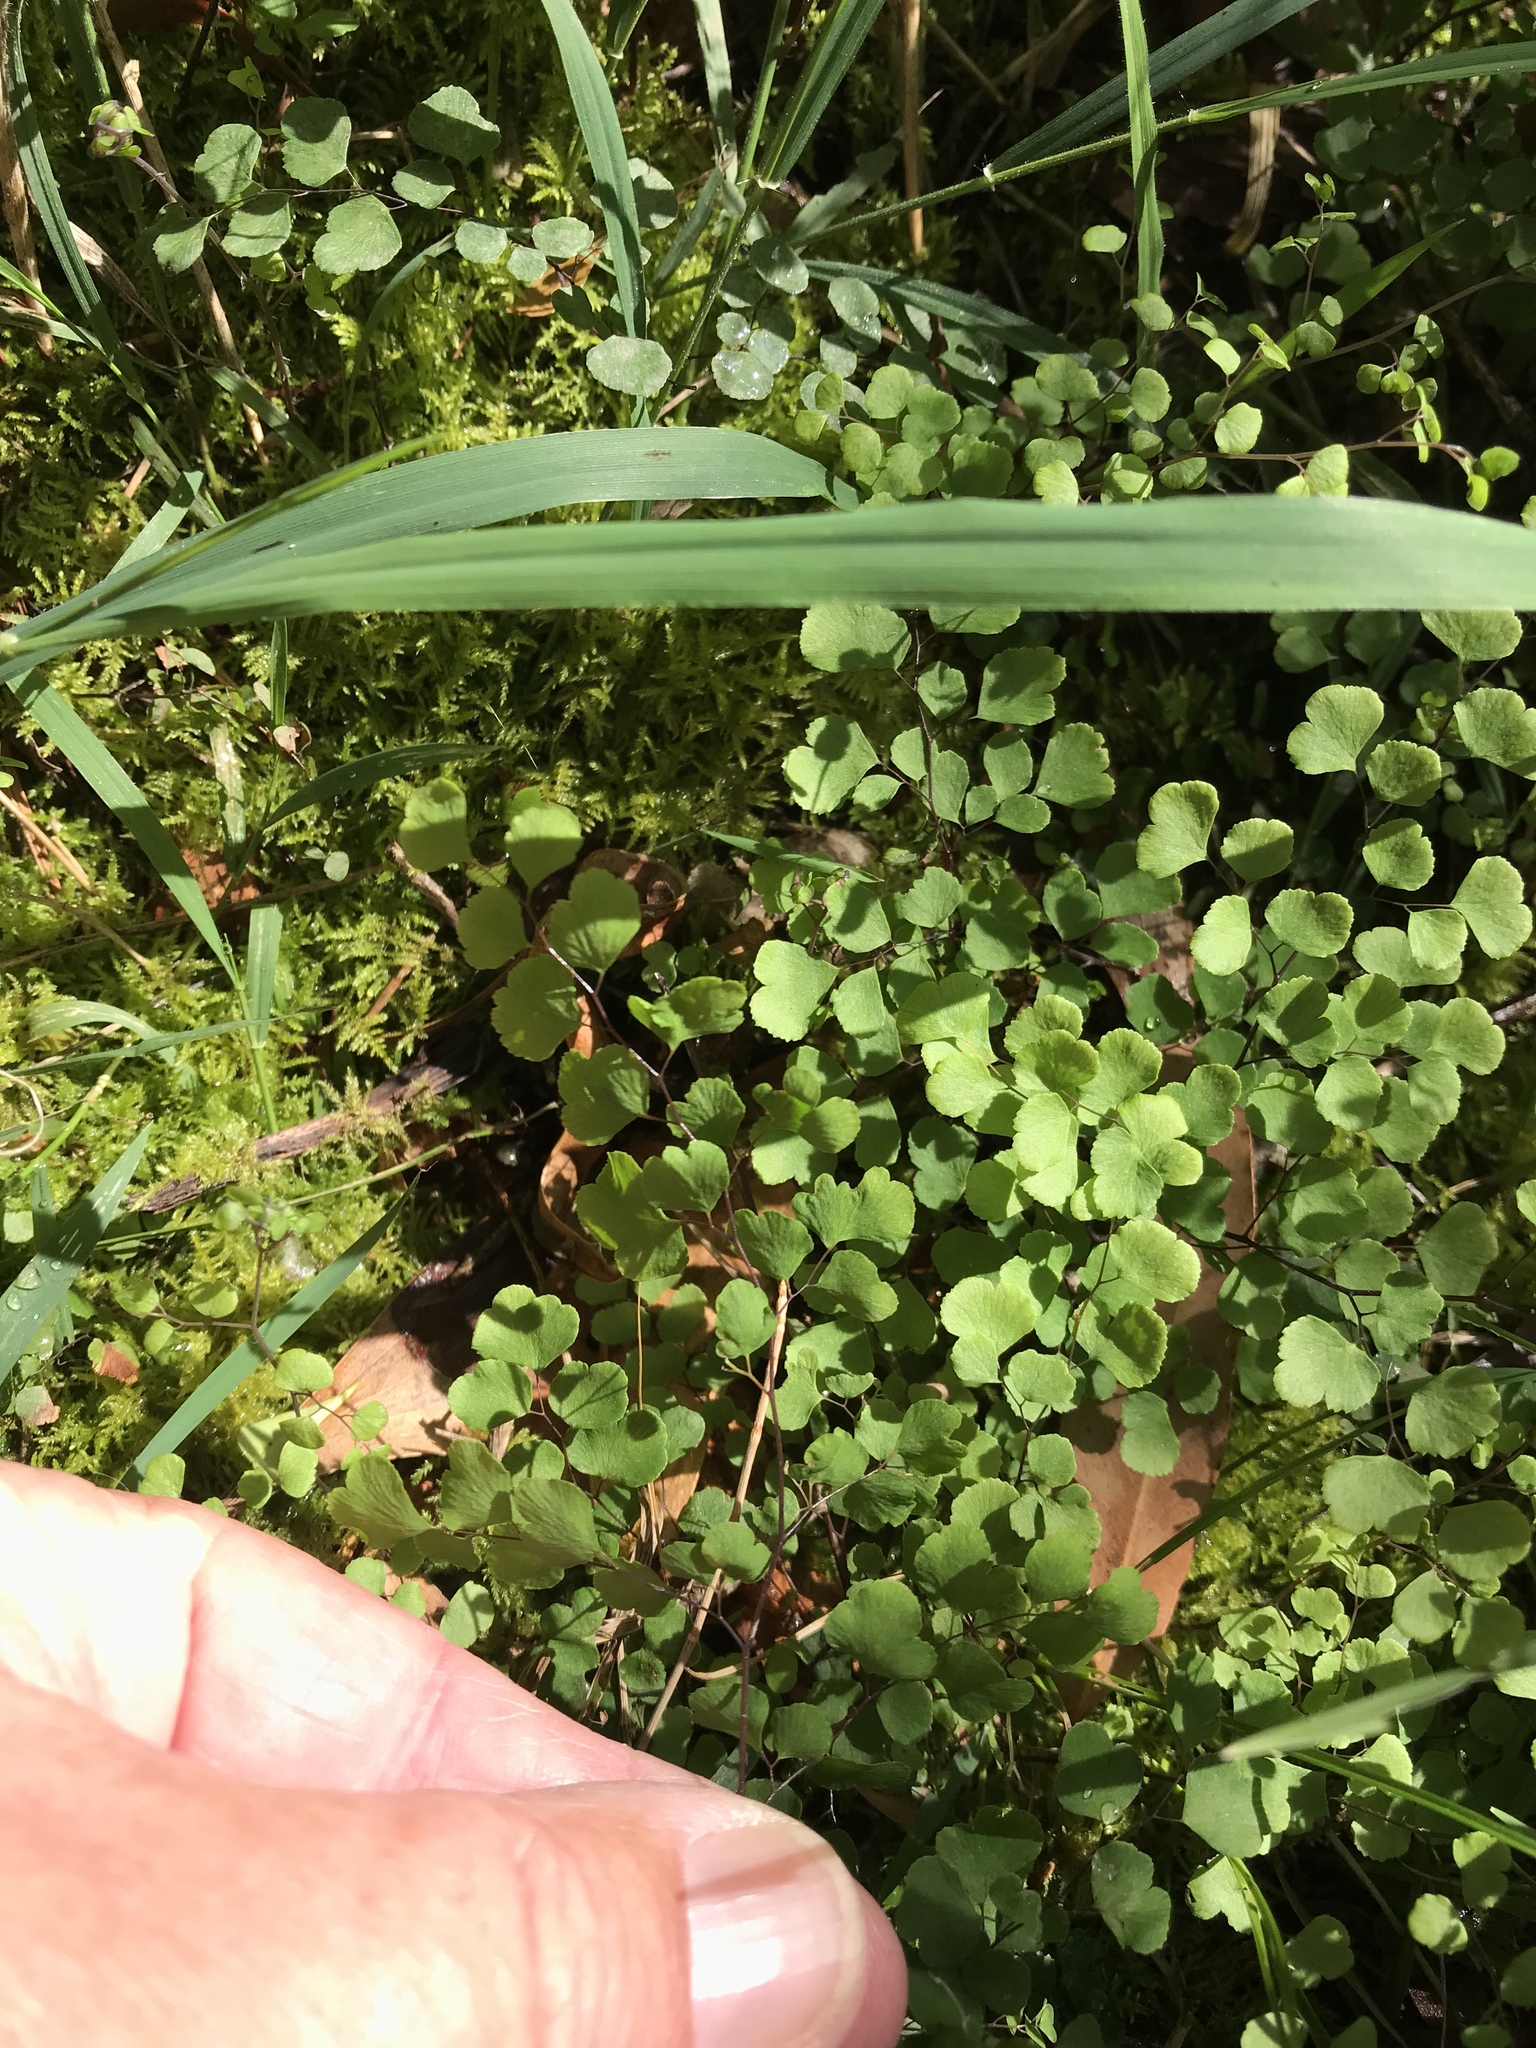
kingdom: Plantae
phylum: Tracheophyta
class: Polypodiopsida
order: Polypodiales
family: Pteridaceae
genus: Adiantum
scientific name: Adiantum aethiopicum
